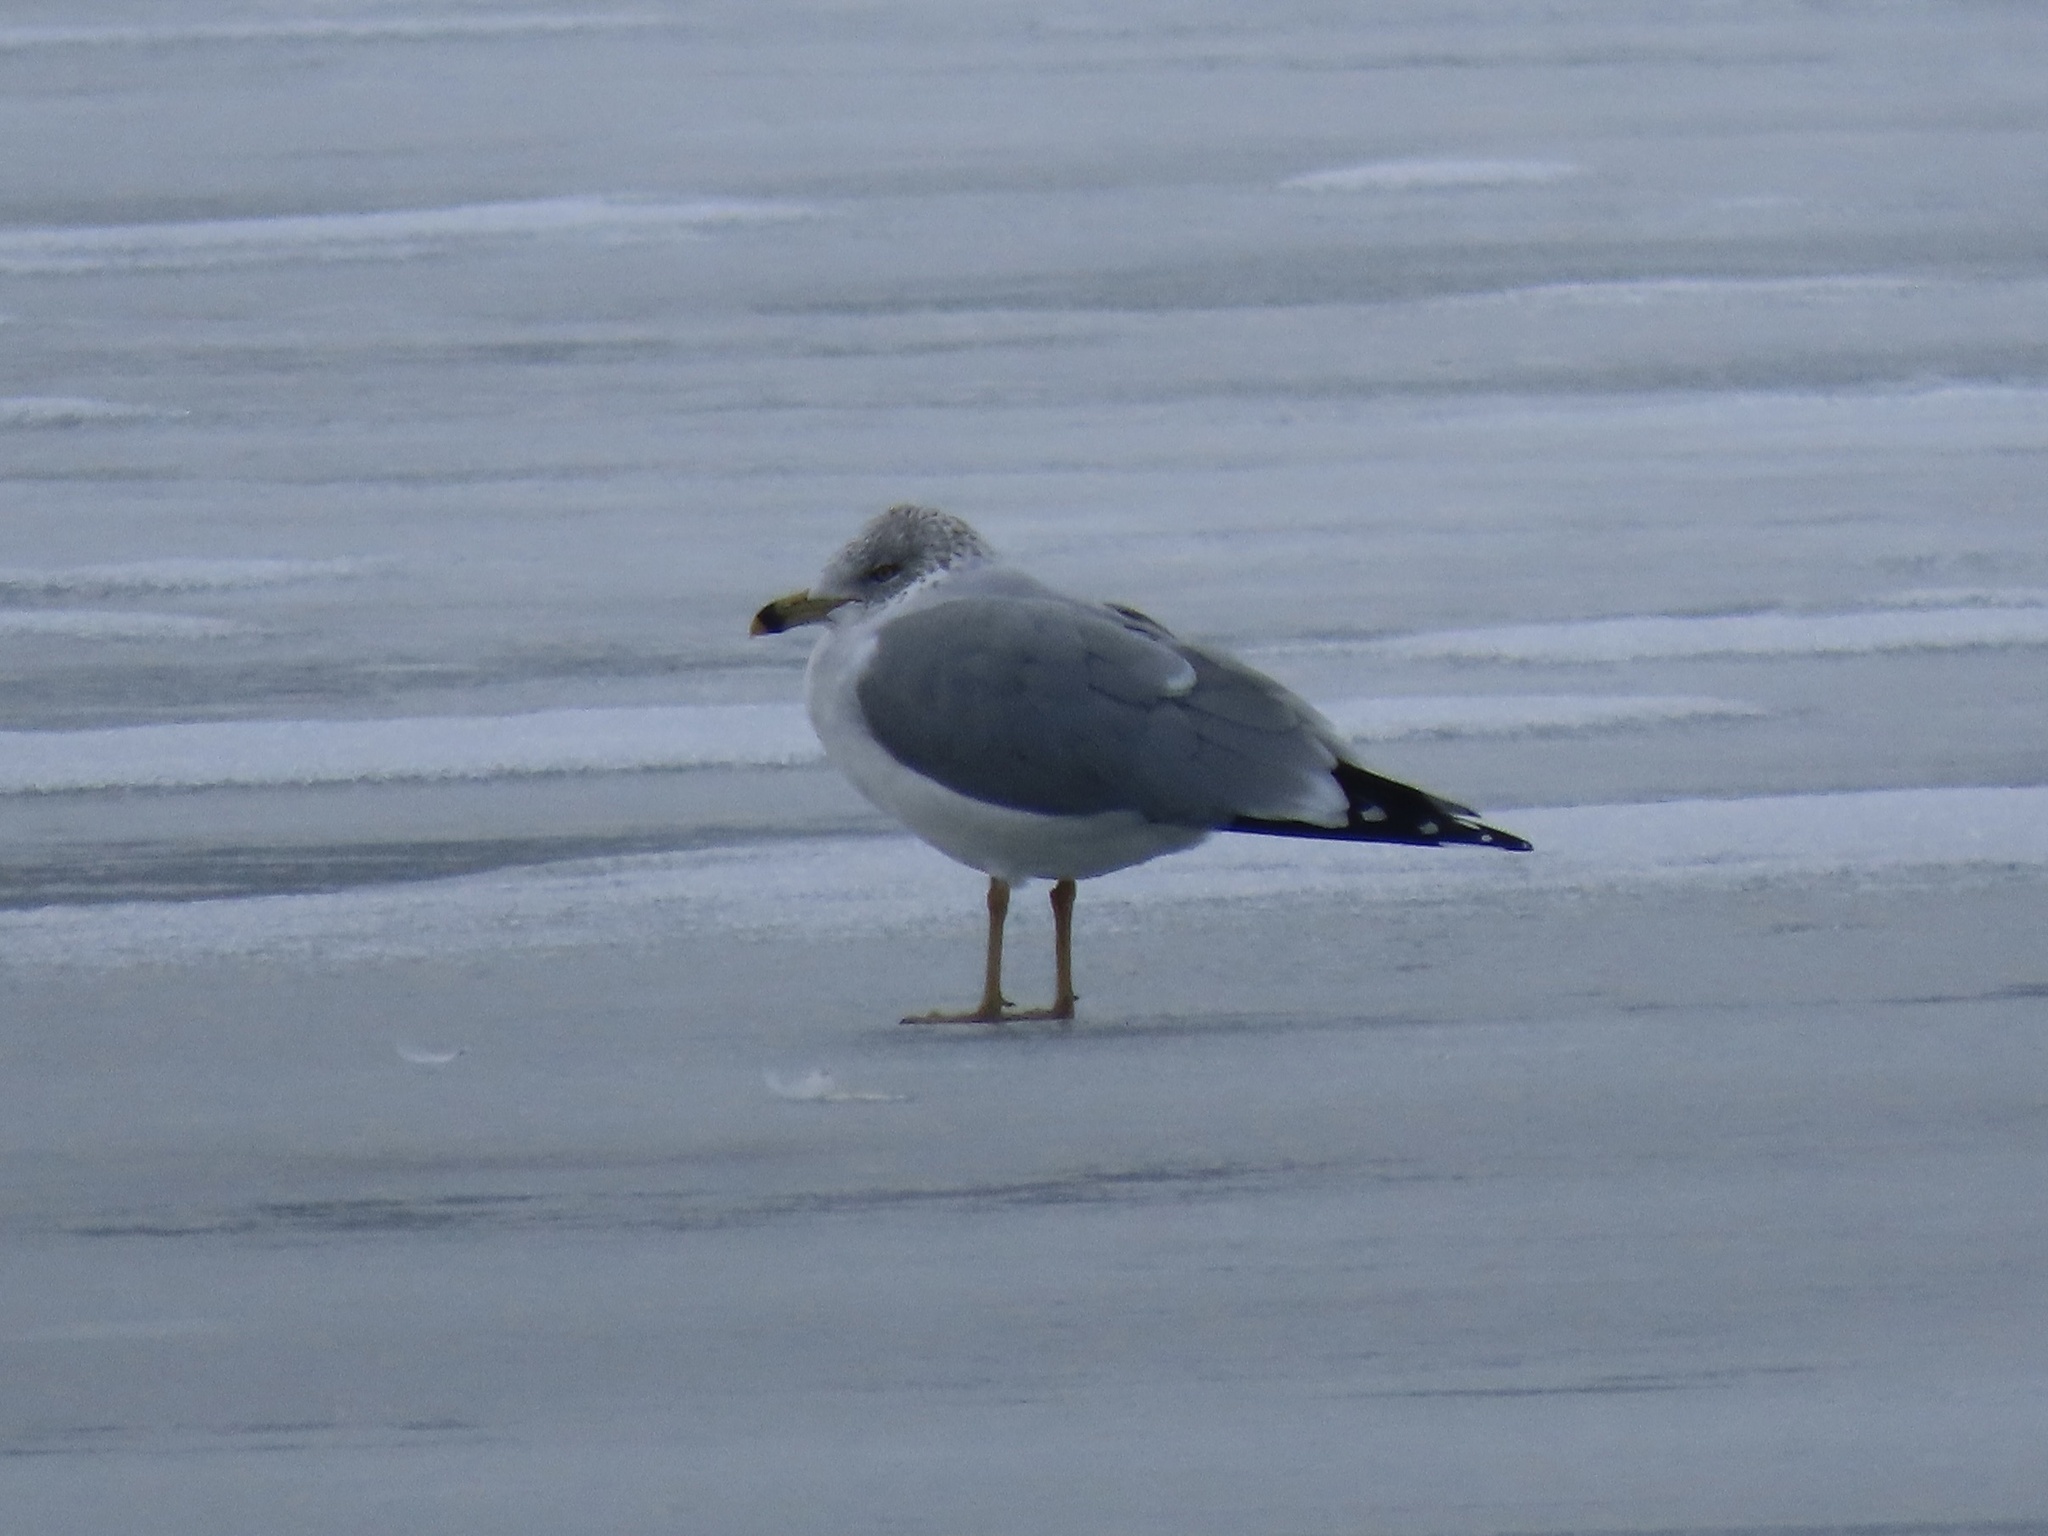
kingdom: Animalia
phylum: Chordata
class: Aves
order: Charadriiformes
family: Laridae
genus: Larus
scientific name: Larus delawarensis
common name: Ring-billed gull
